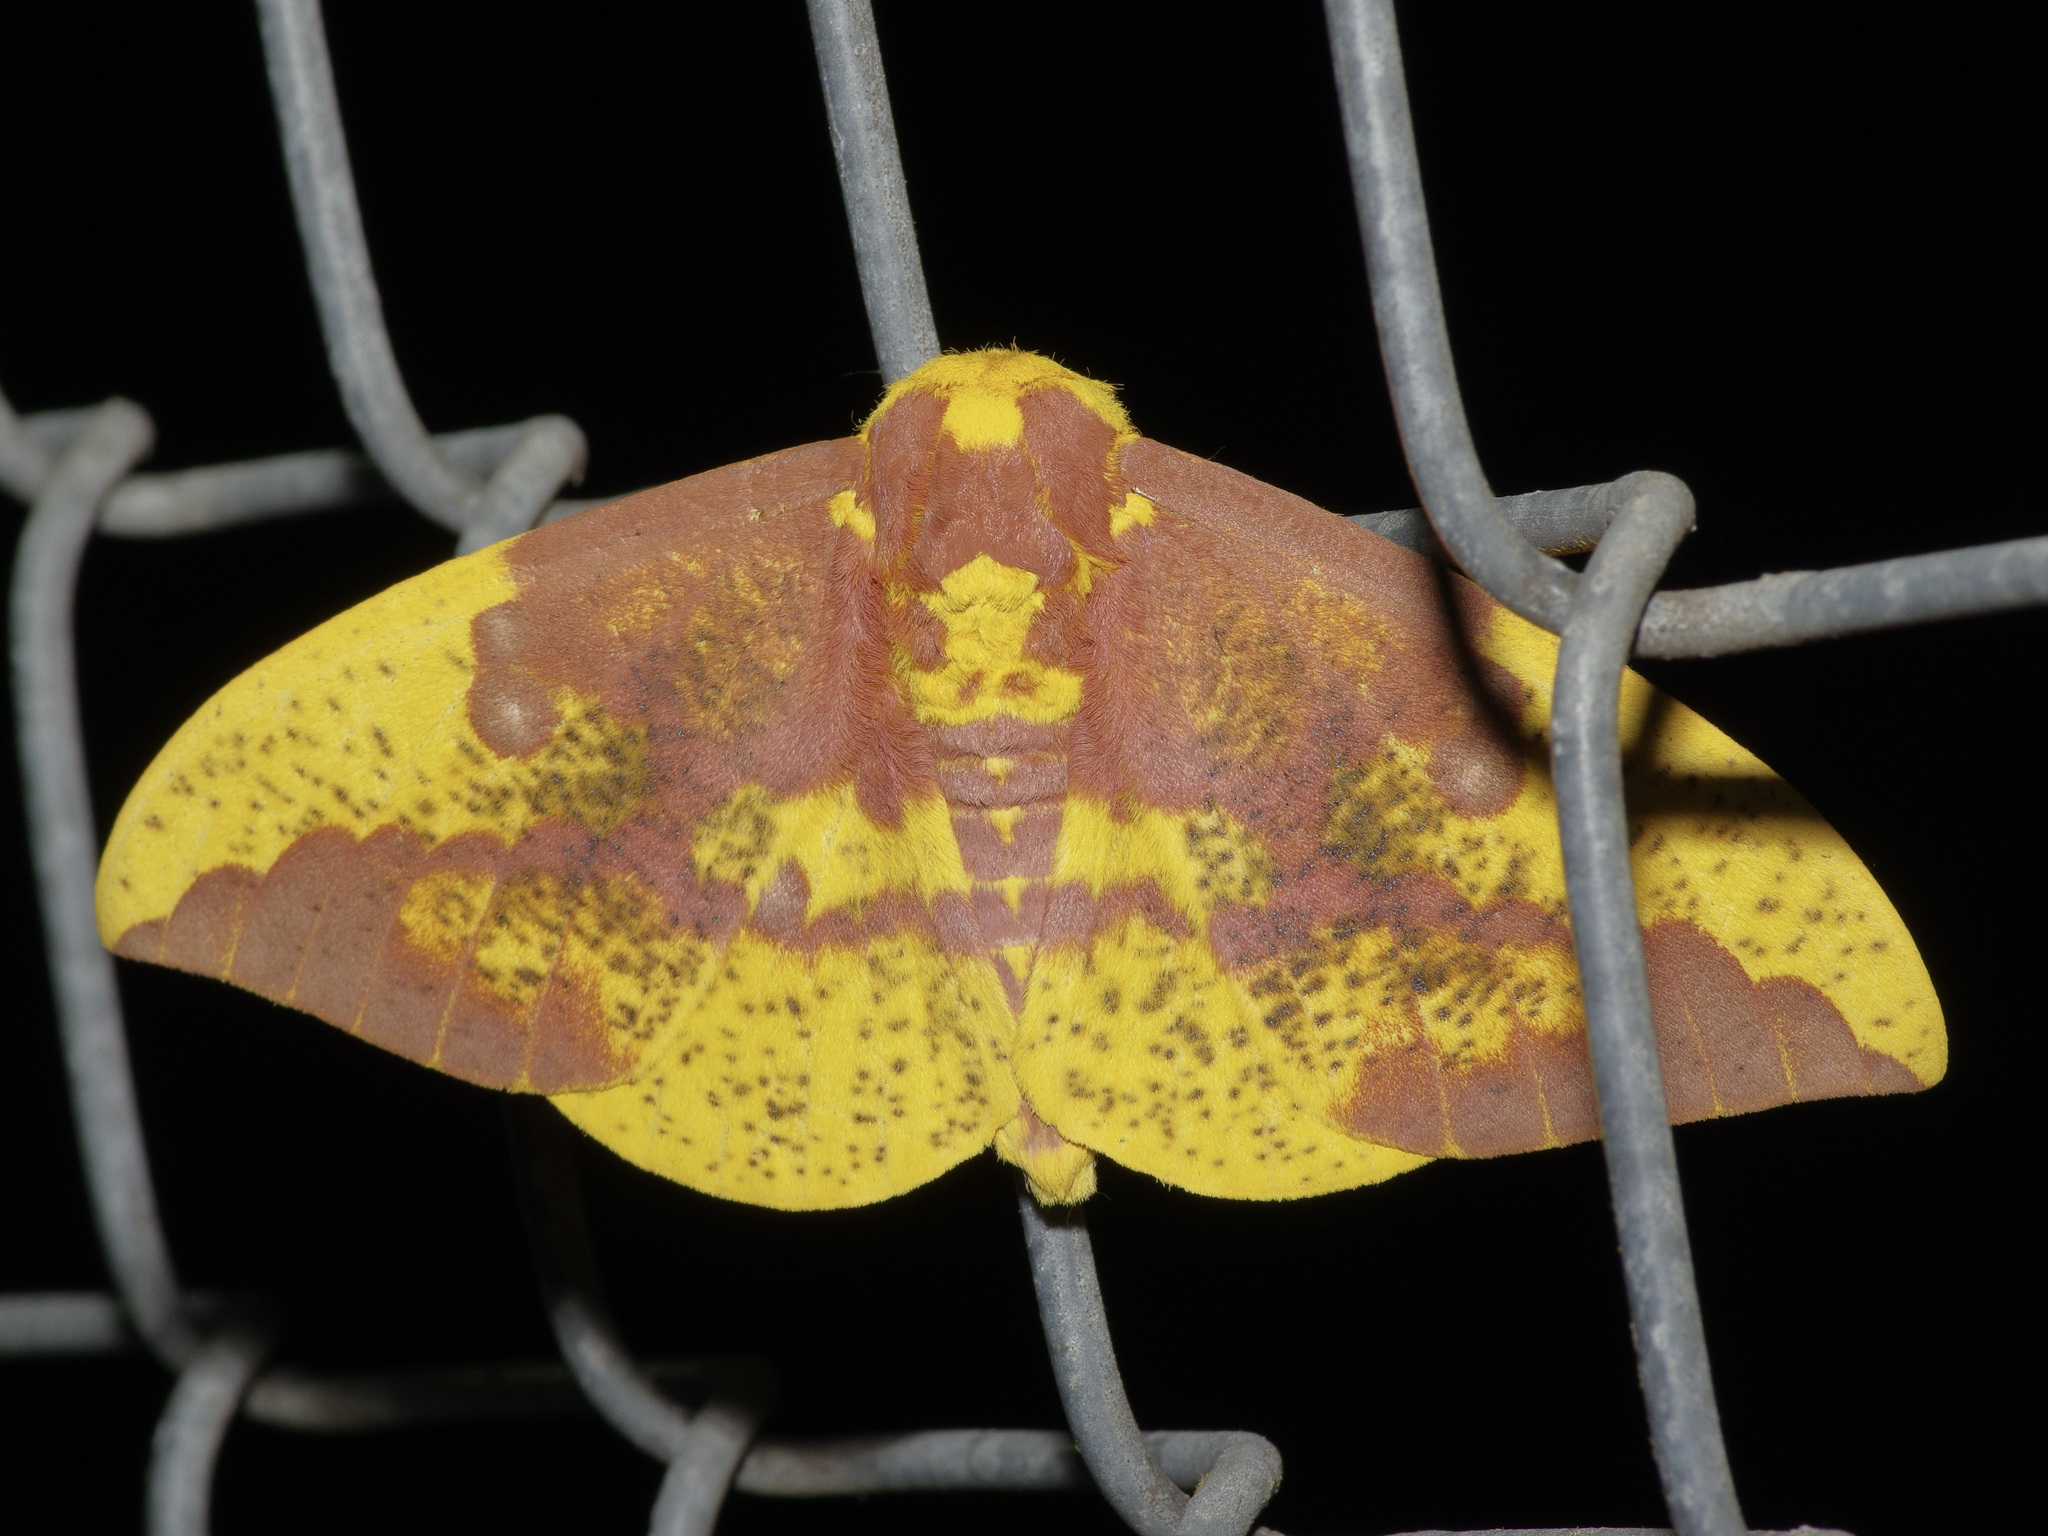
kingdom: Animalia
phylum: Arthropoda
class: Insecta
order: Lepidoptera
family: Saturniidae
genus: Eacles
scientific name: Eacles imperialis
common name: Imperial moth
